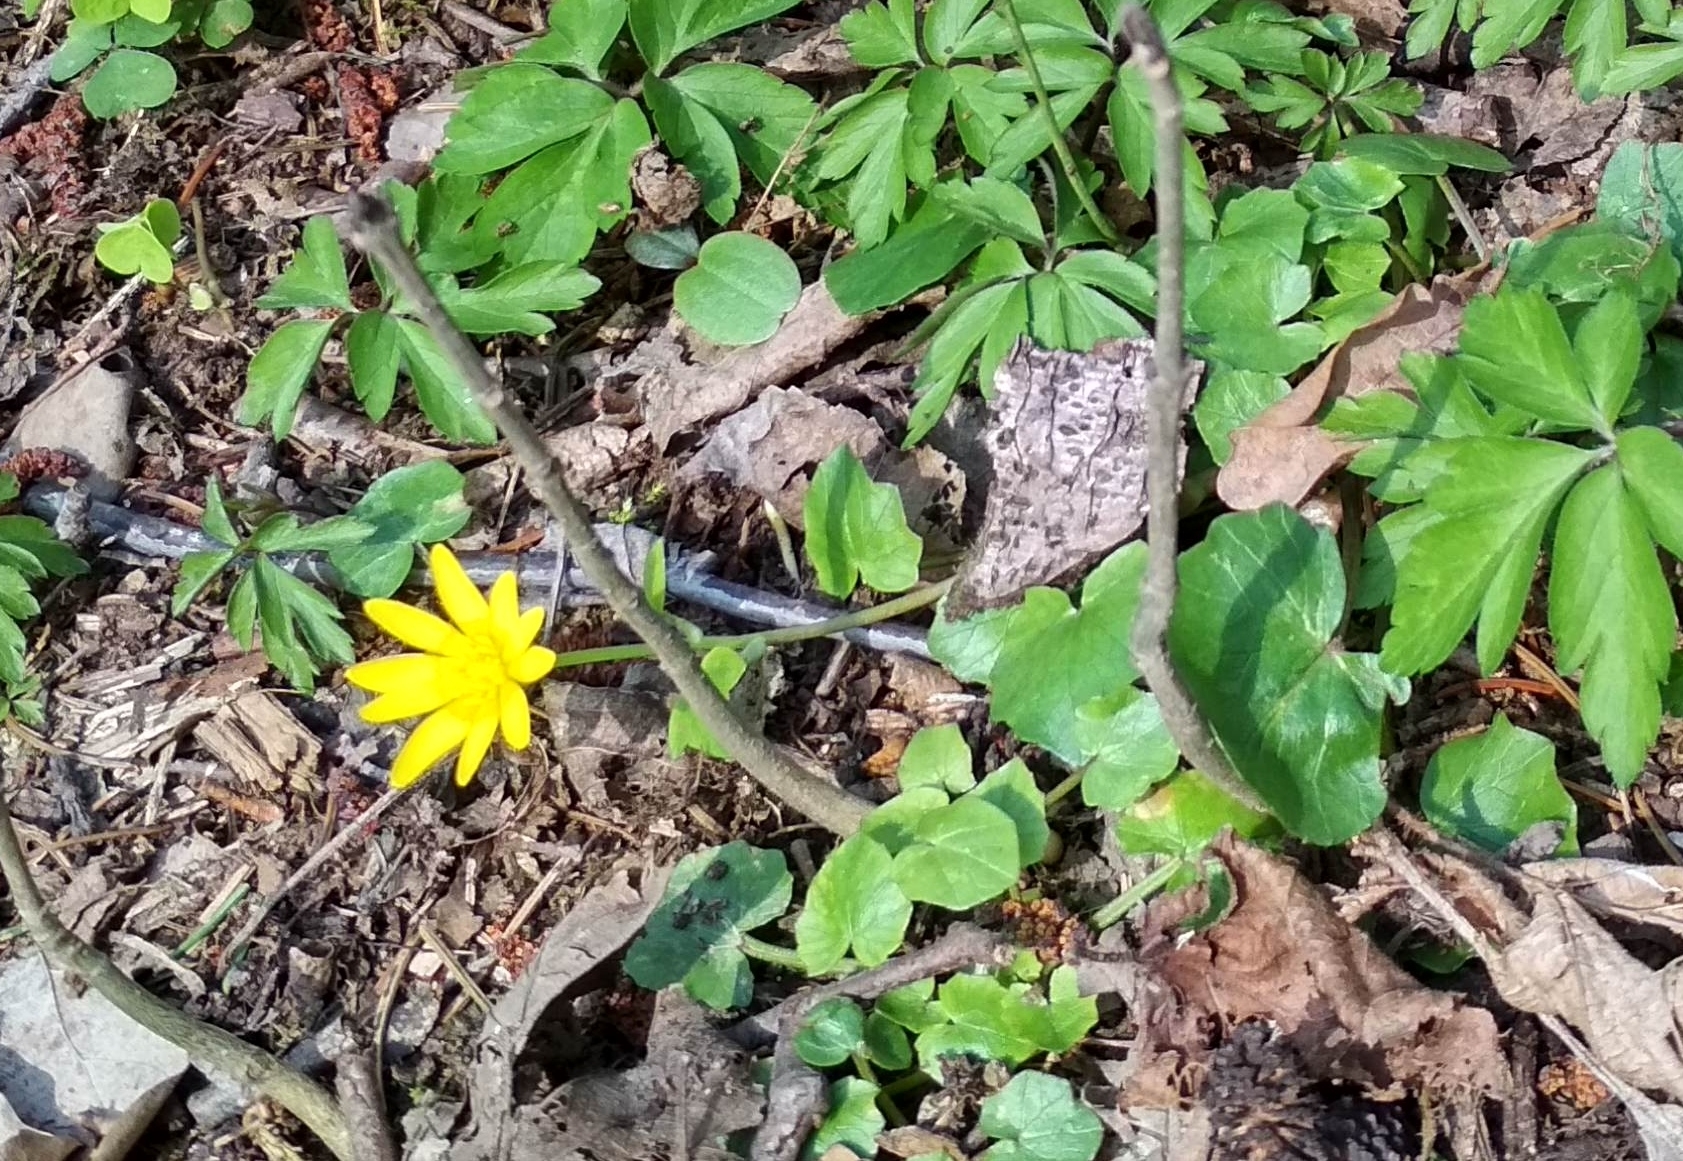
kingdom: Plantae
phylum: Tracheophyta
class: Magnoliopsida
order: Ranunculales
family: Ranunculaceae
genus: Ficaria
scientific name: Ficaria verna
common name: Lesser celandine
